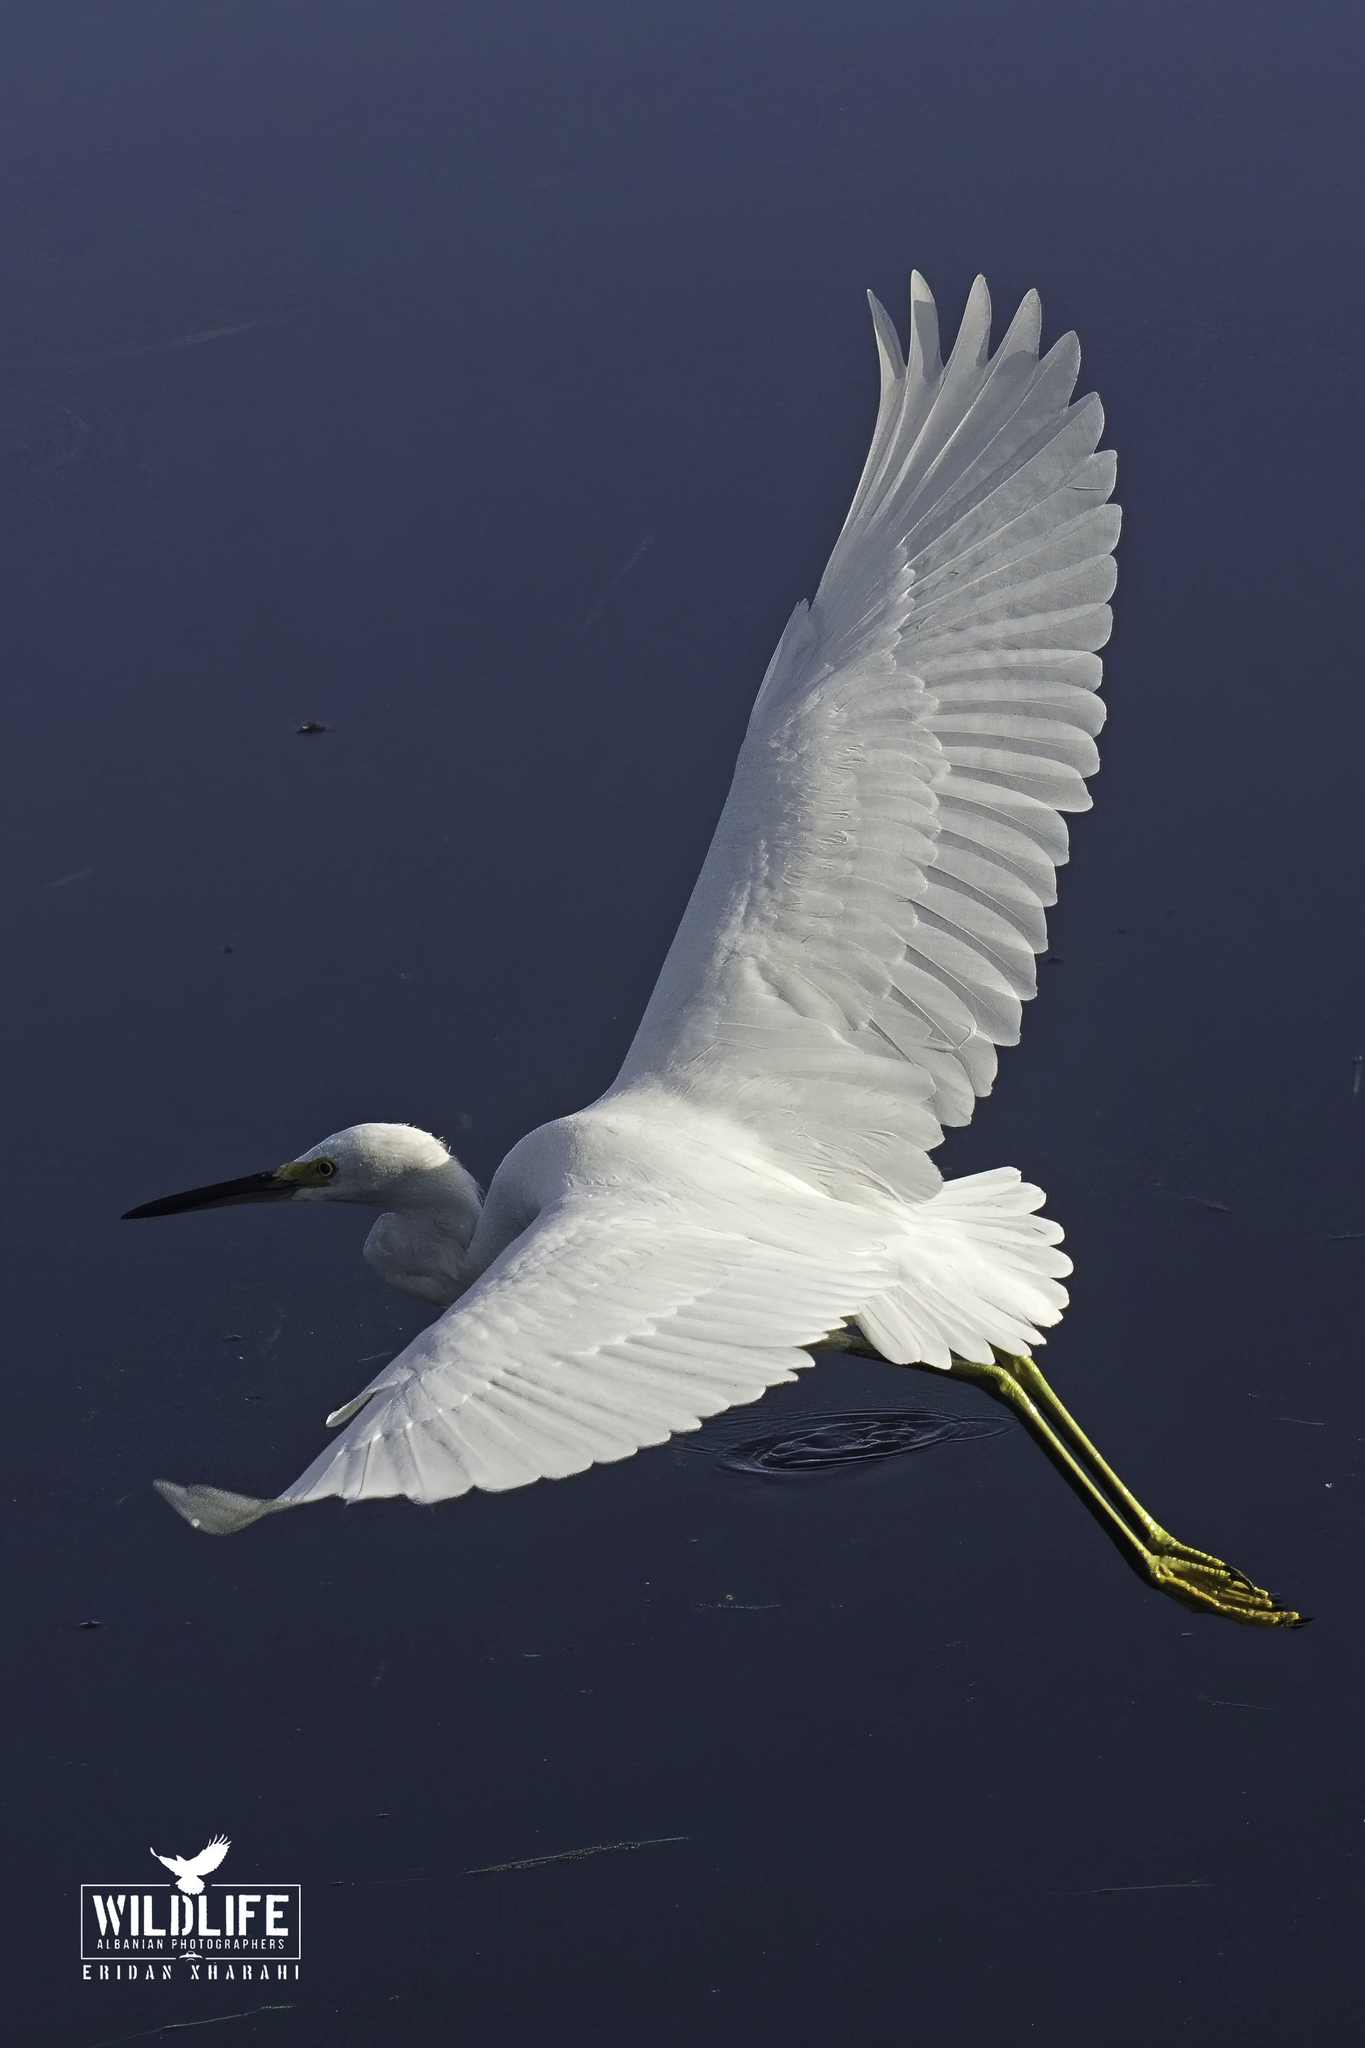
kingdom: Animalia
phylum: Chordata
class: Aves
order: Pelecaniformes
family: Ardeidae
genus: Egretta
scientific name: Egretta thula
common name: Snowy egret
